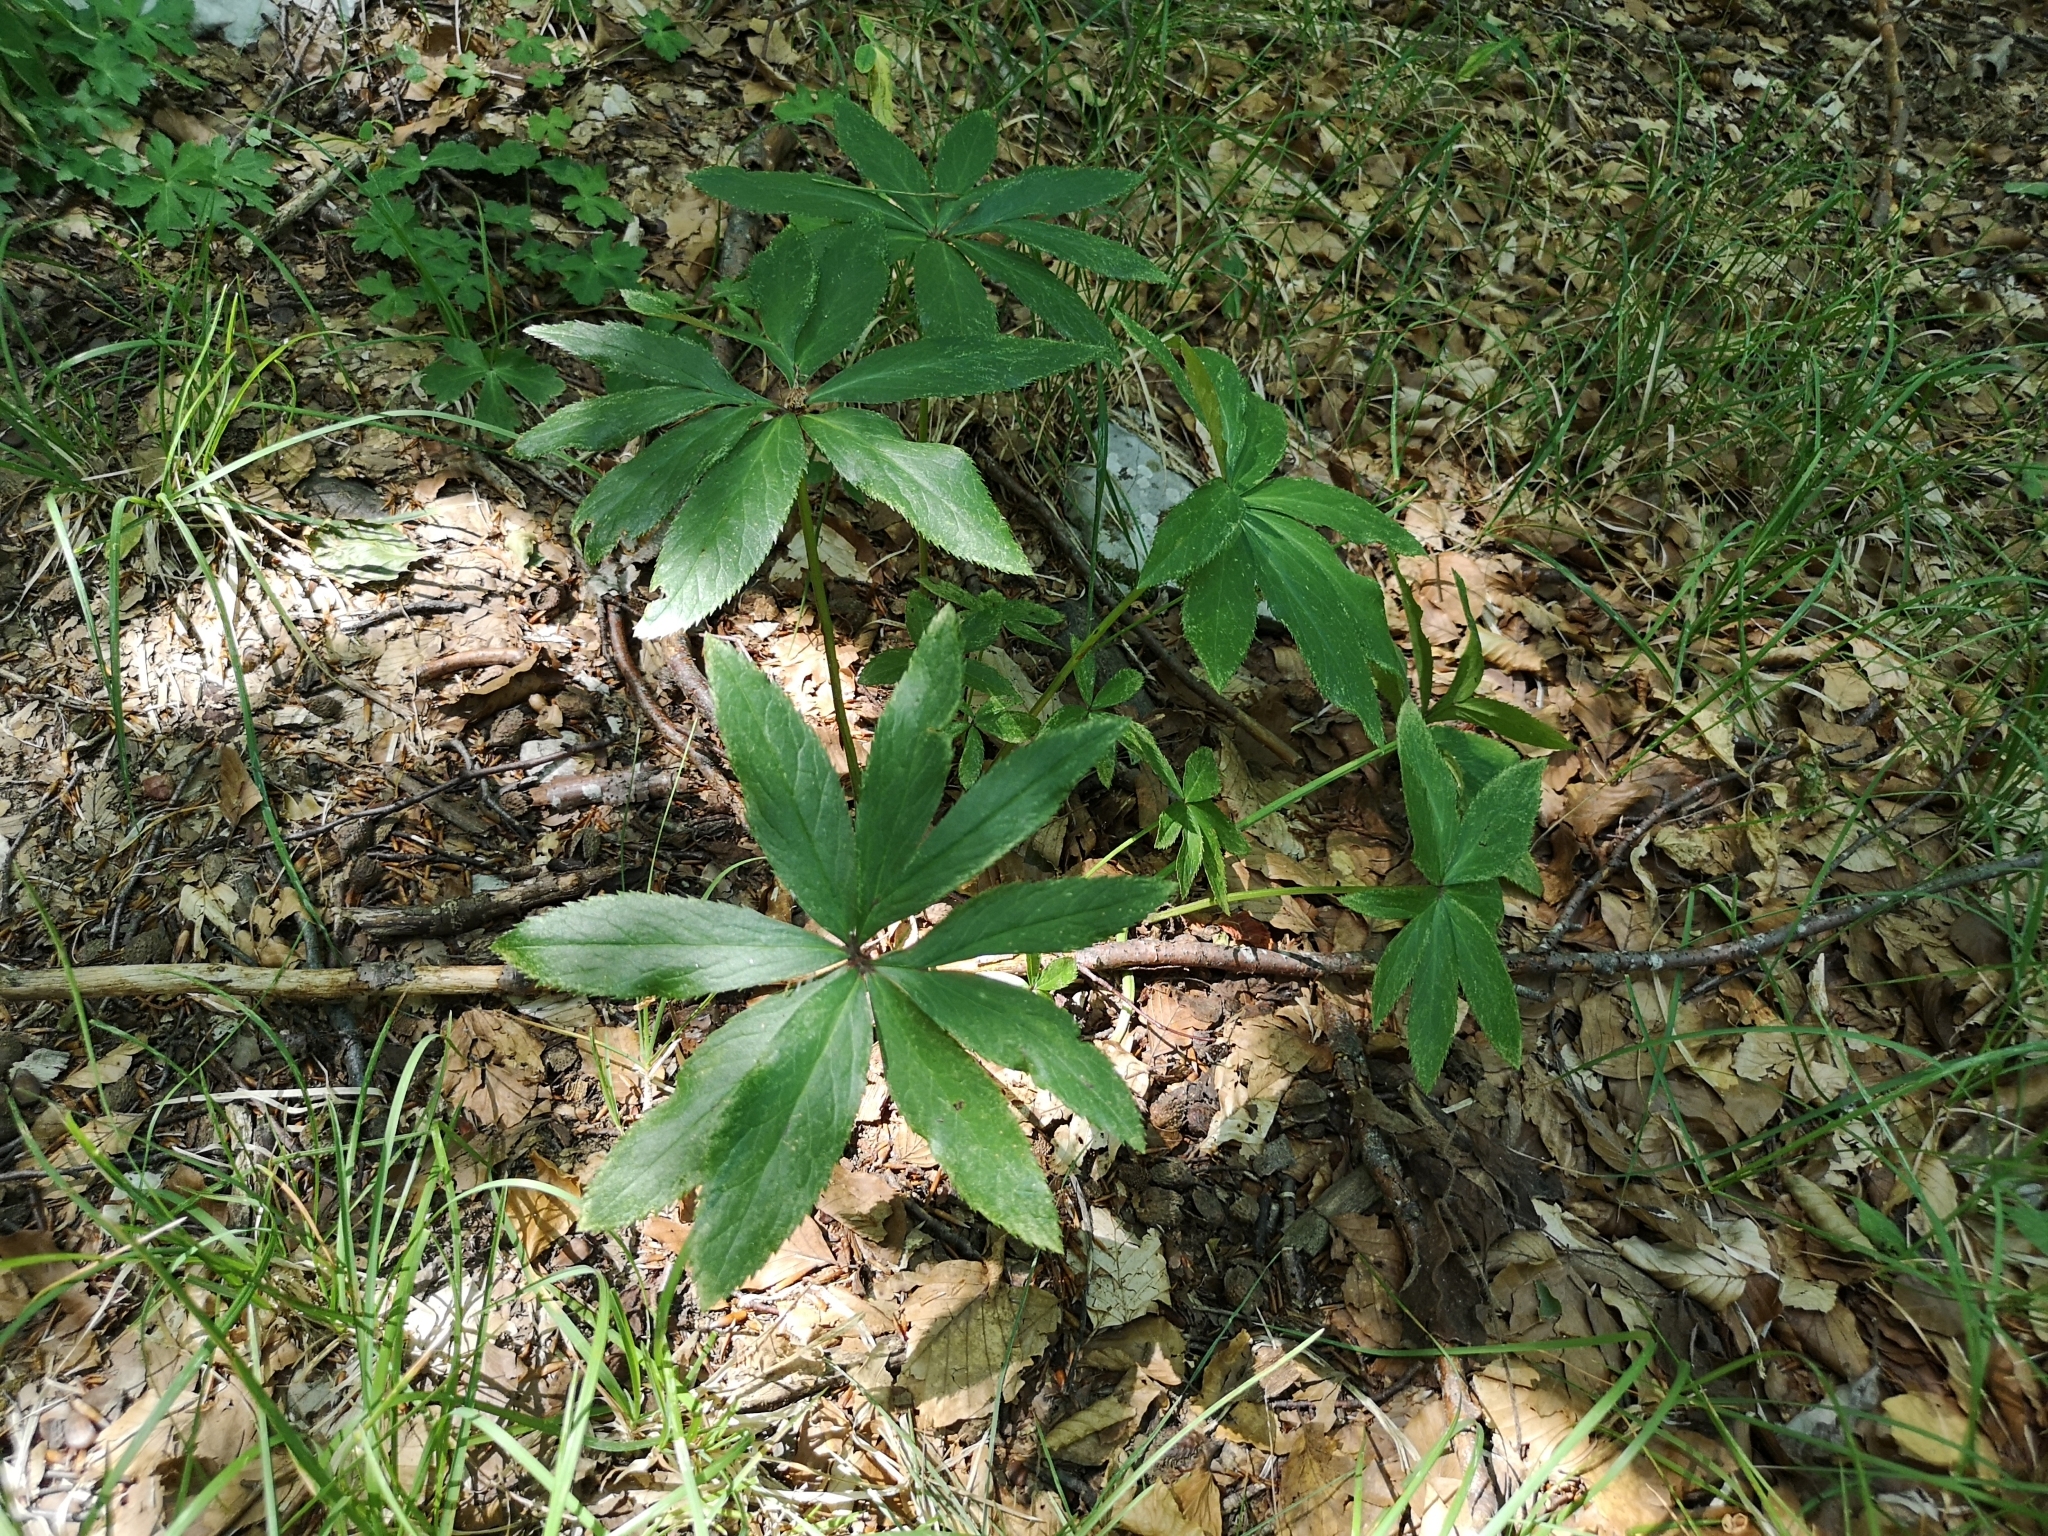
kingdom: Plantae
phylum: Tracheophyta
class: Magnoliopsida
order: Ranunculales
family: Ranunculaceae
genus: Helleborus
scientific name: Helleborus bocconei
